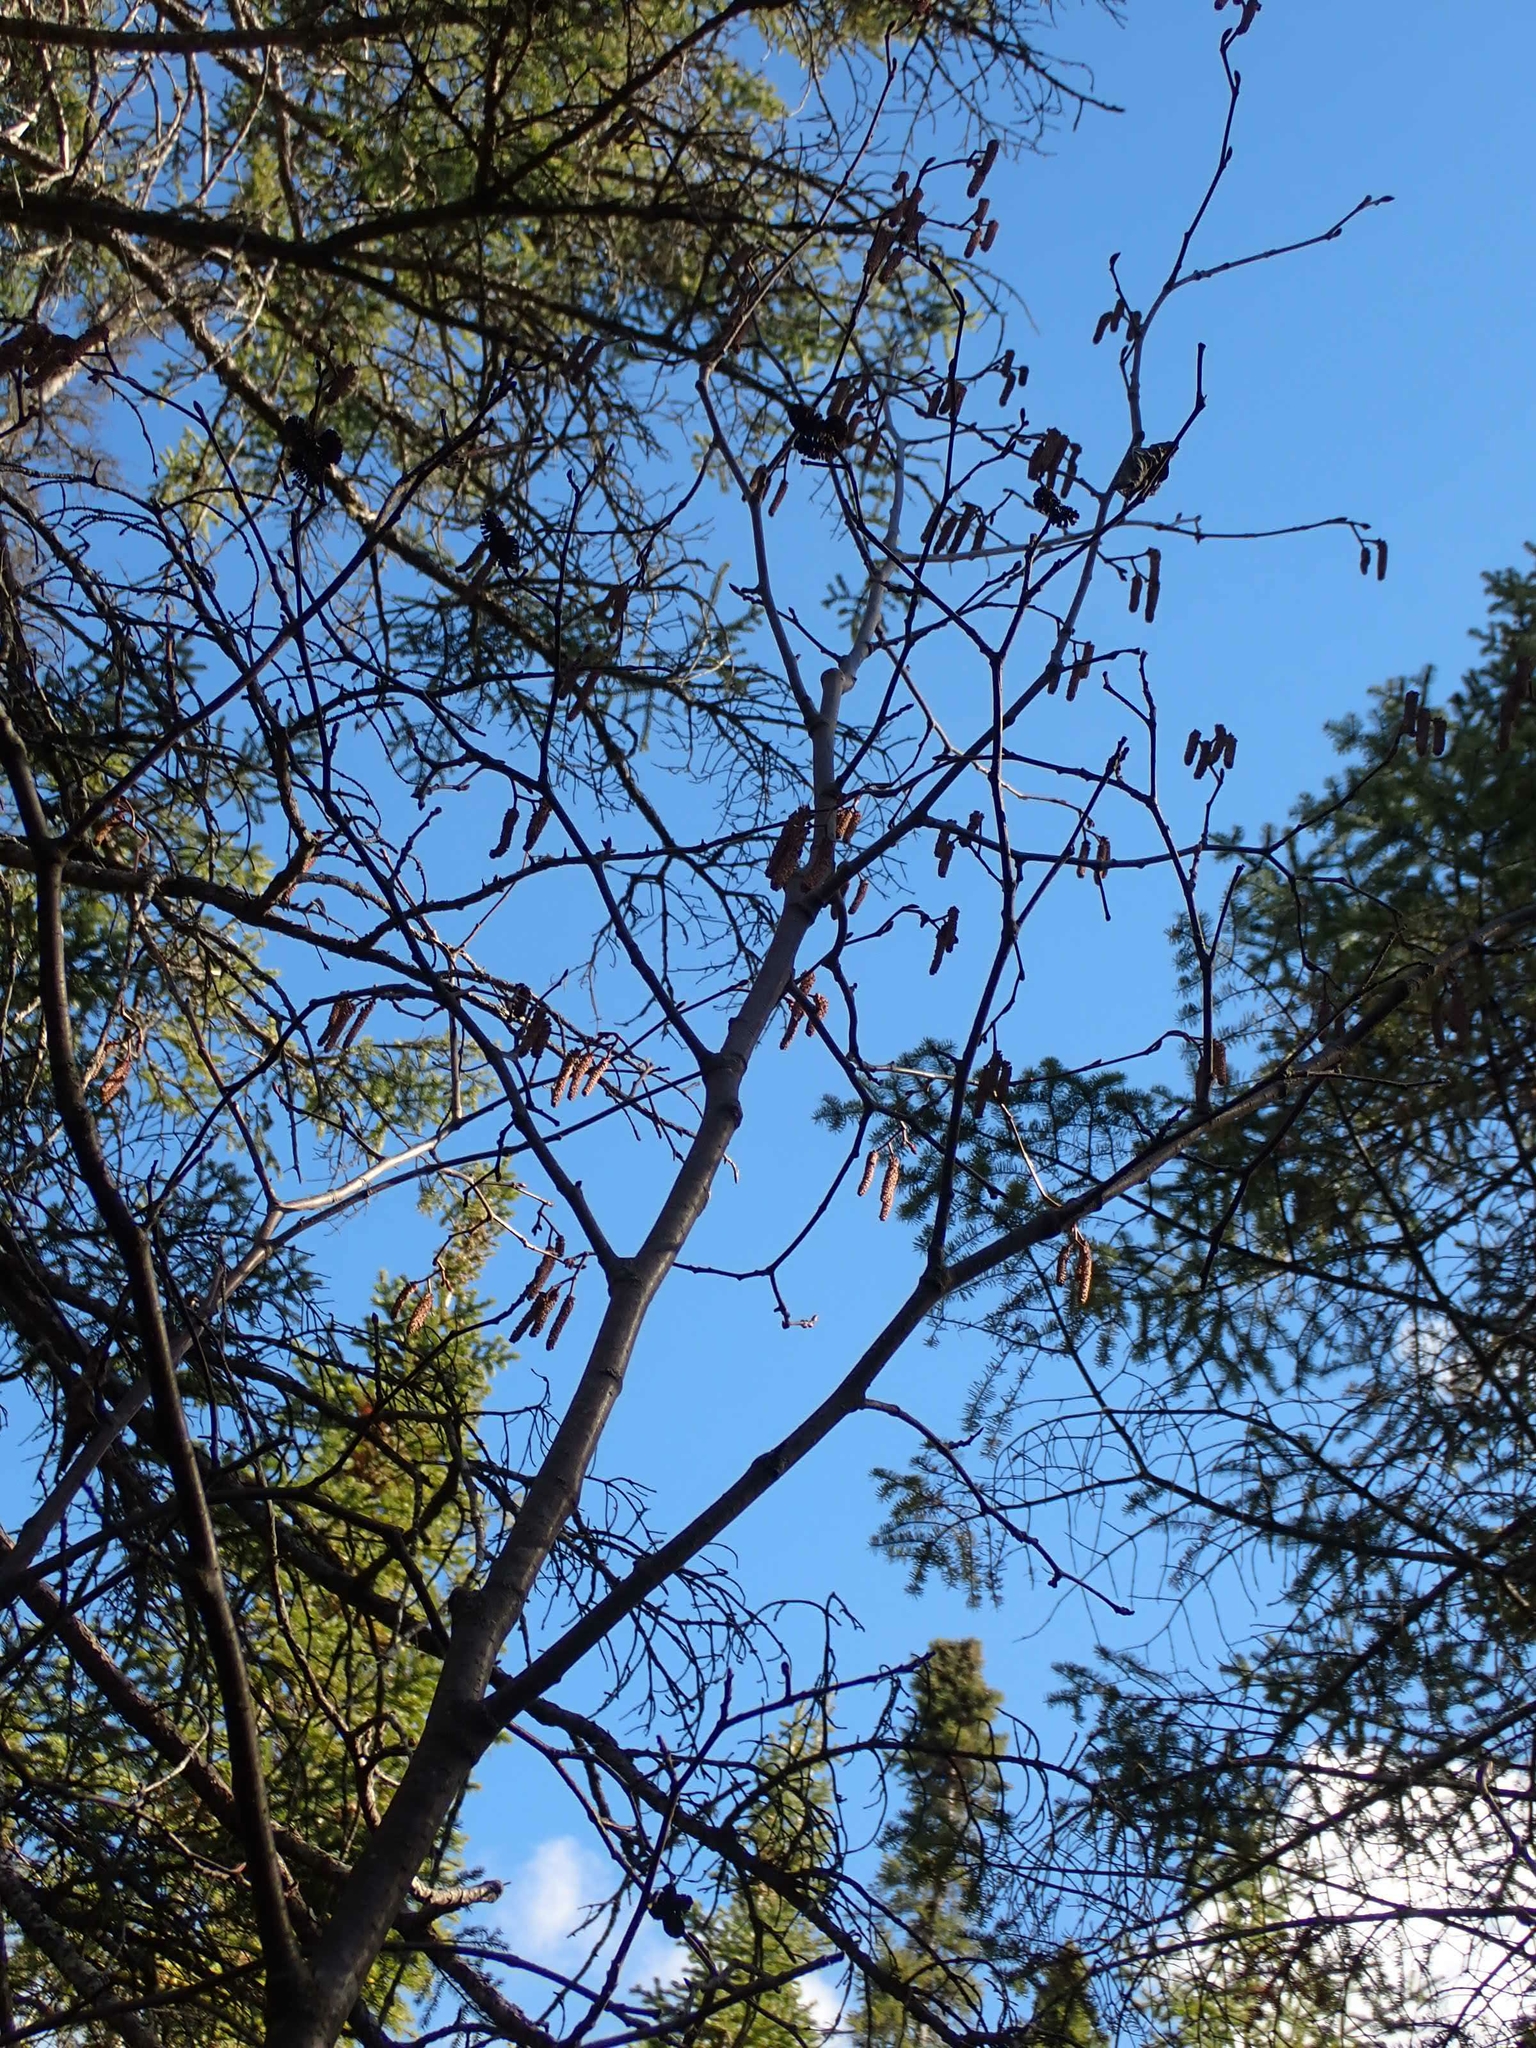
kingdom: Plantae
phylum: Tracheophyta
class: Magnoliopsida
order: Fagales
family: Betulaceae
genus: Alnus
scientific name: Alnus incana
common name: Grey alder
